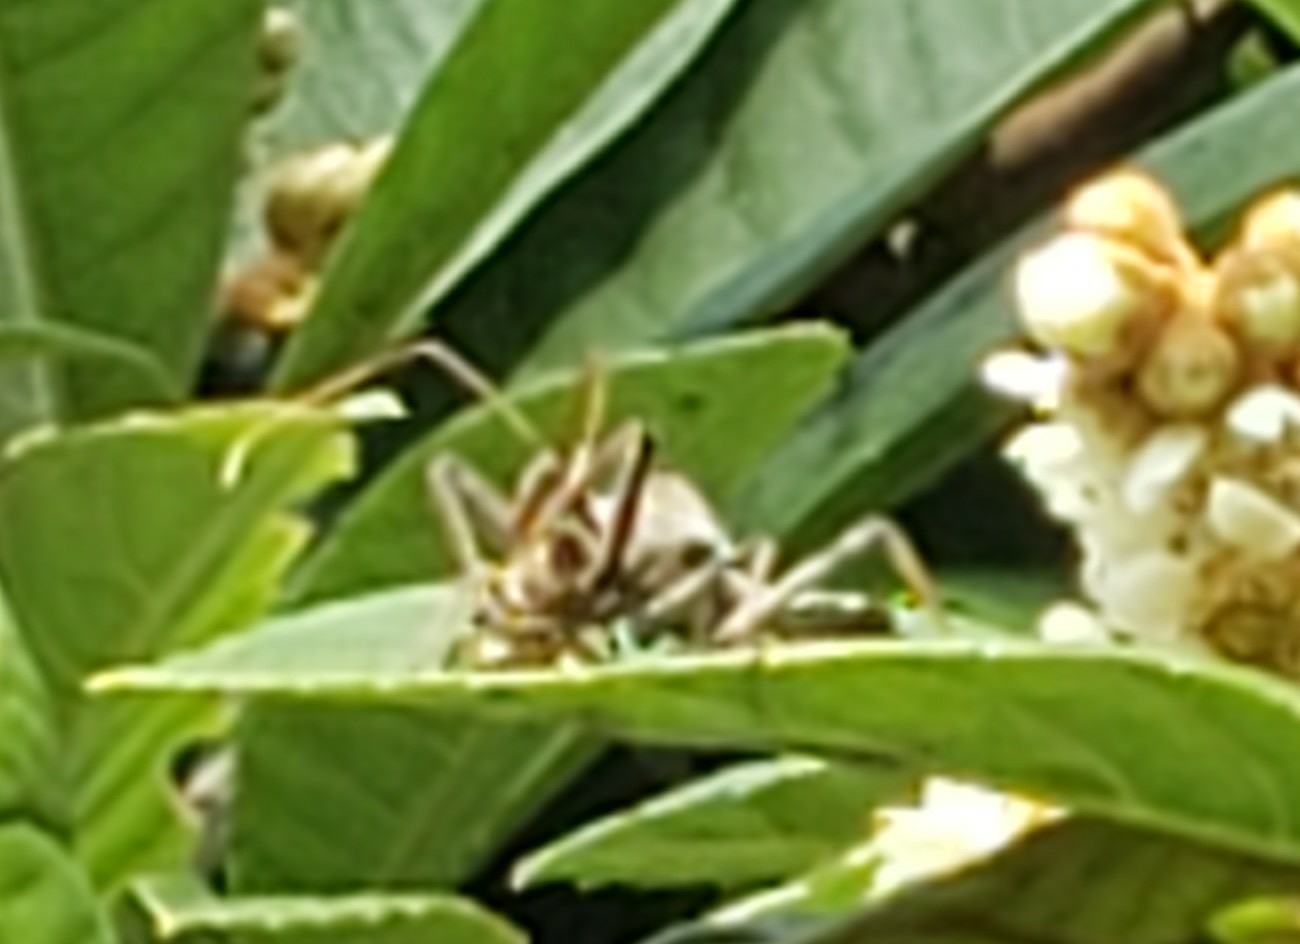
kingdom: Animalia
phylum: Arthropoda
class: Insecta
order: Hemiptera
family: Reduviidae
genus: Arilus
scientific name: Arilus cristatus
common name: North american wheel bug
